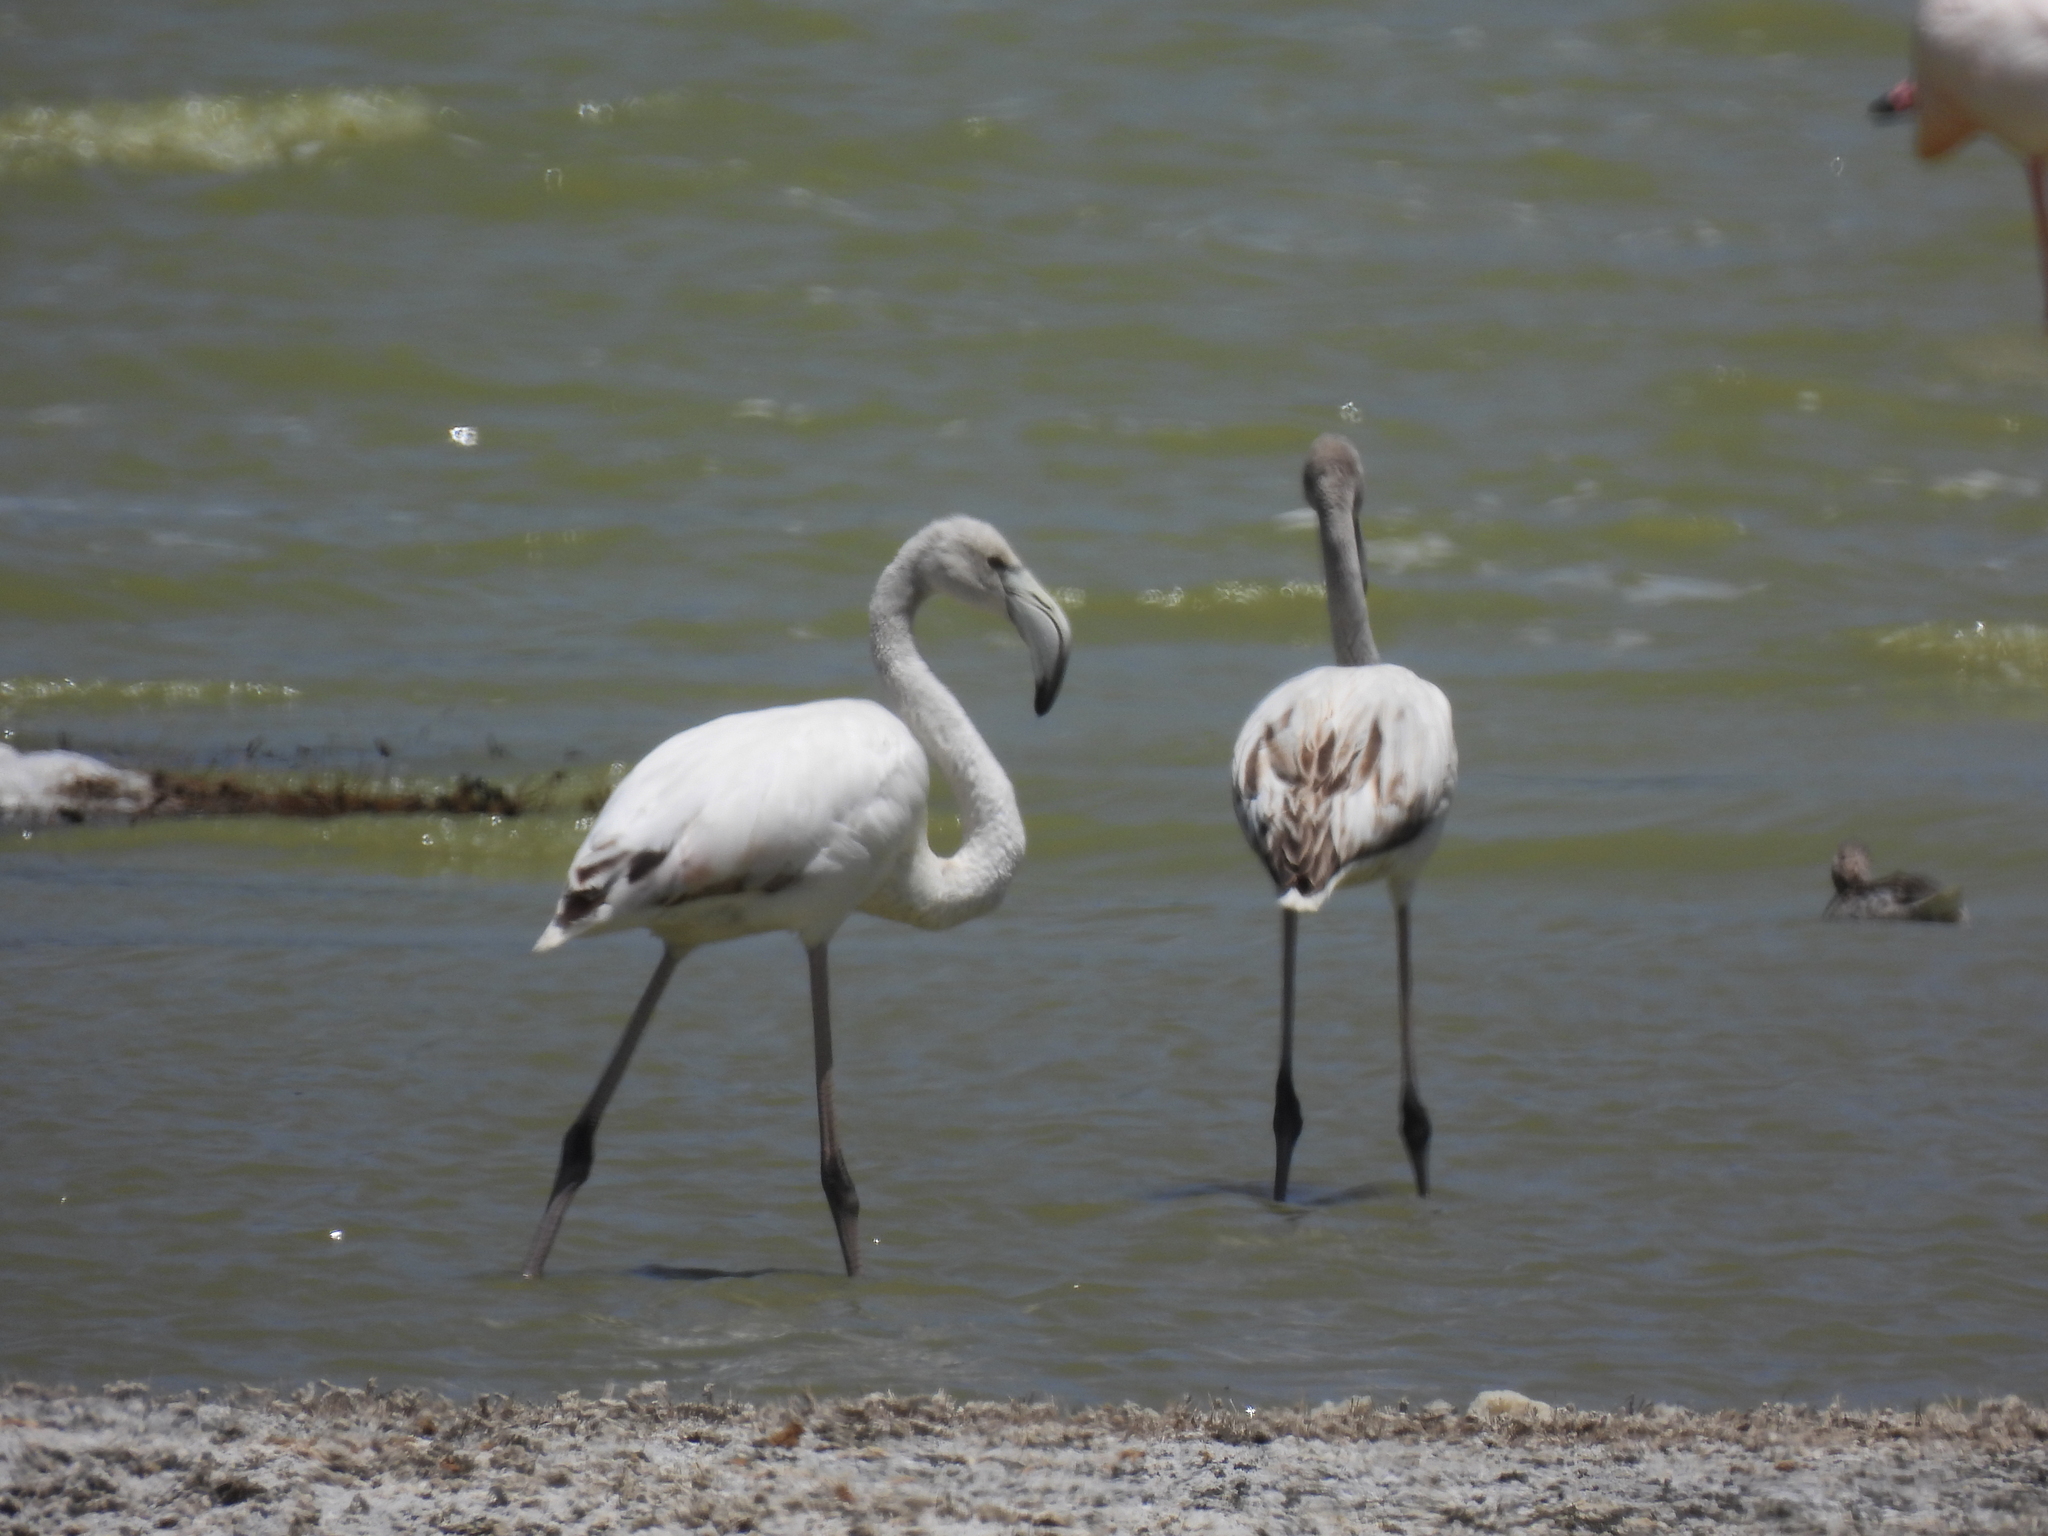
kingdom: Animalia
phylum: Chordata
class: Aves
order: Phoenicopteriformes
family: Phoenicopteridae
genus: Phoenicopterus
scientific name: Phoenicopterus roseus
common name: Greater flamingo
